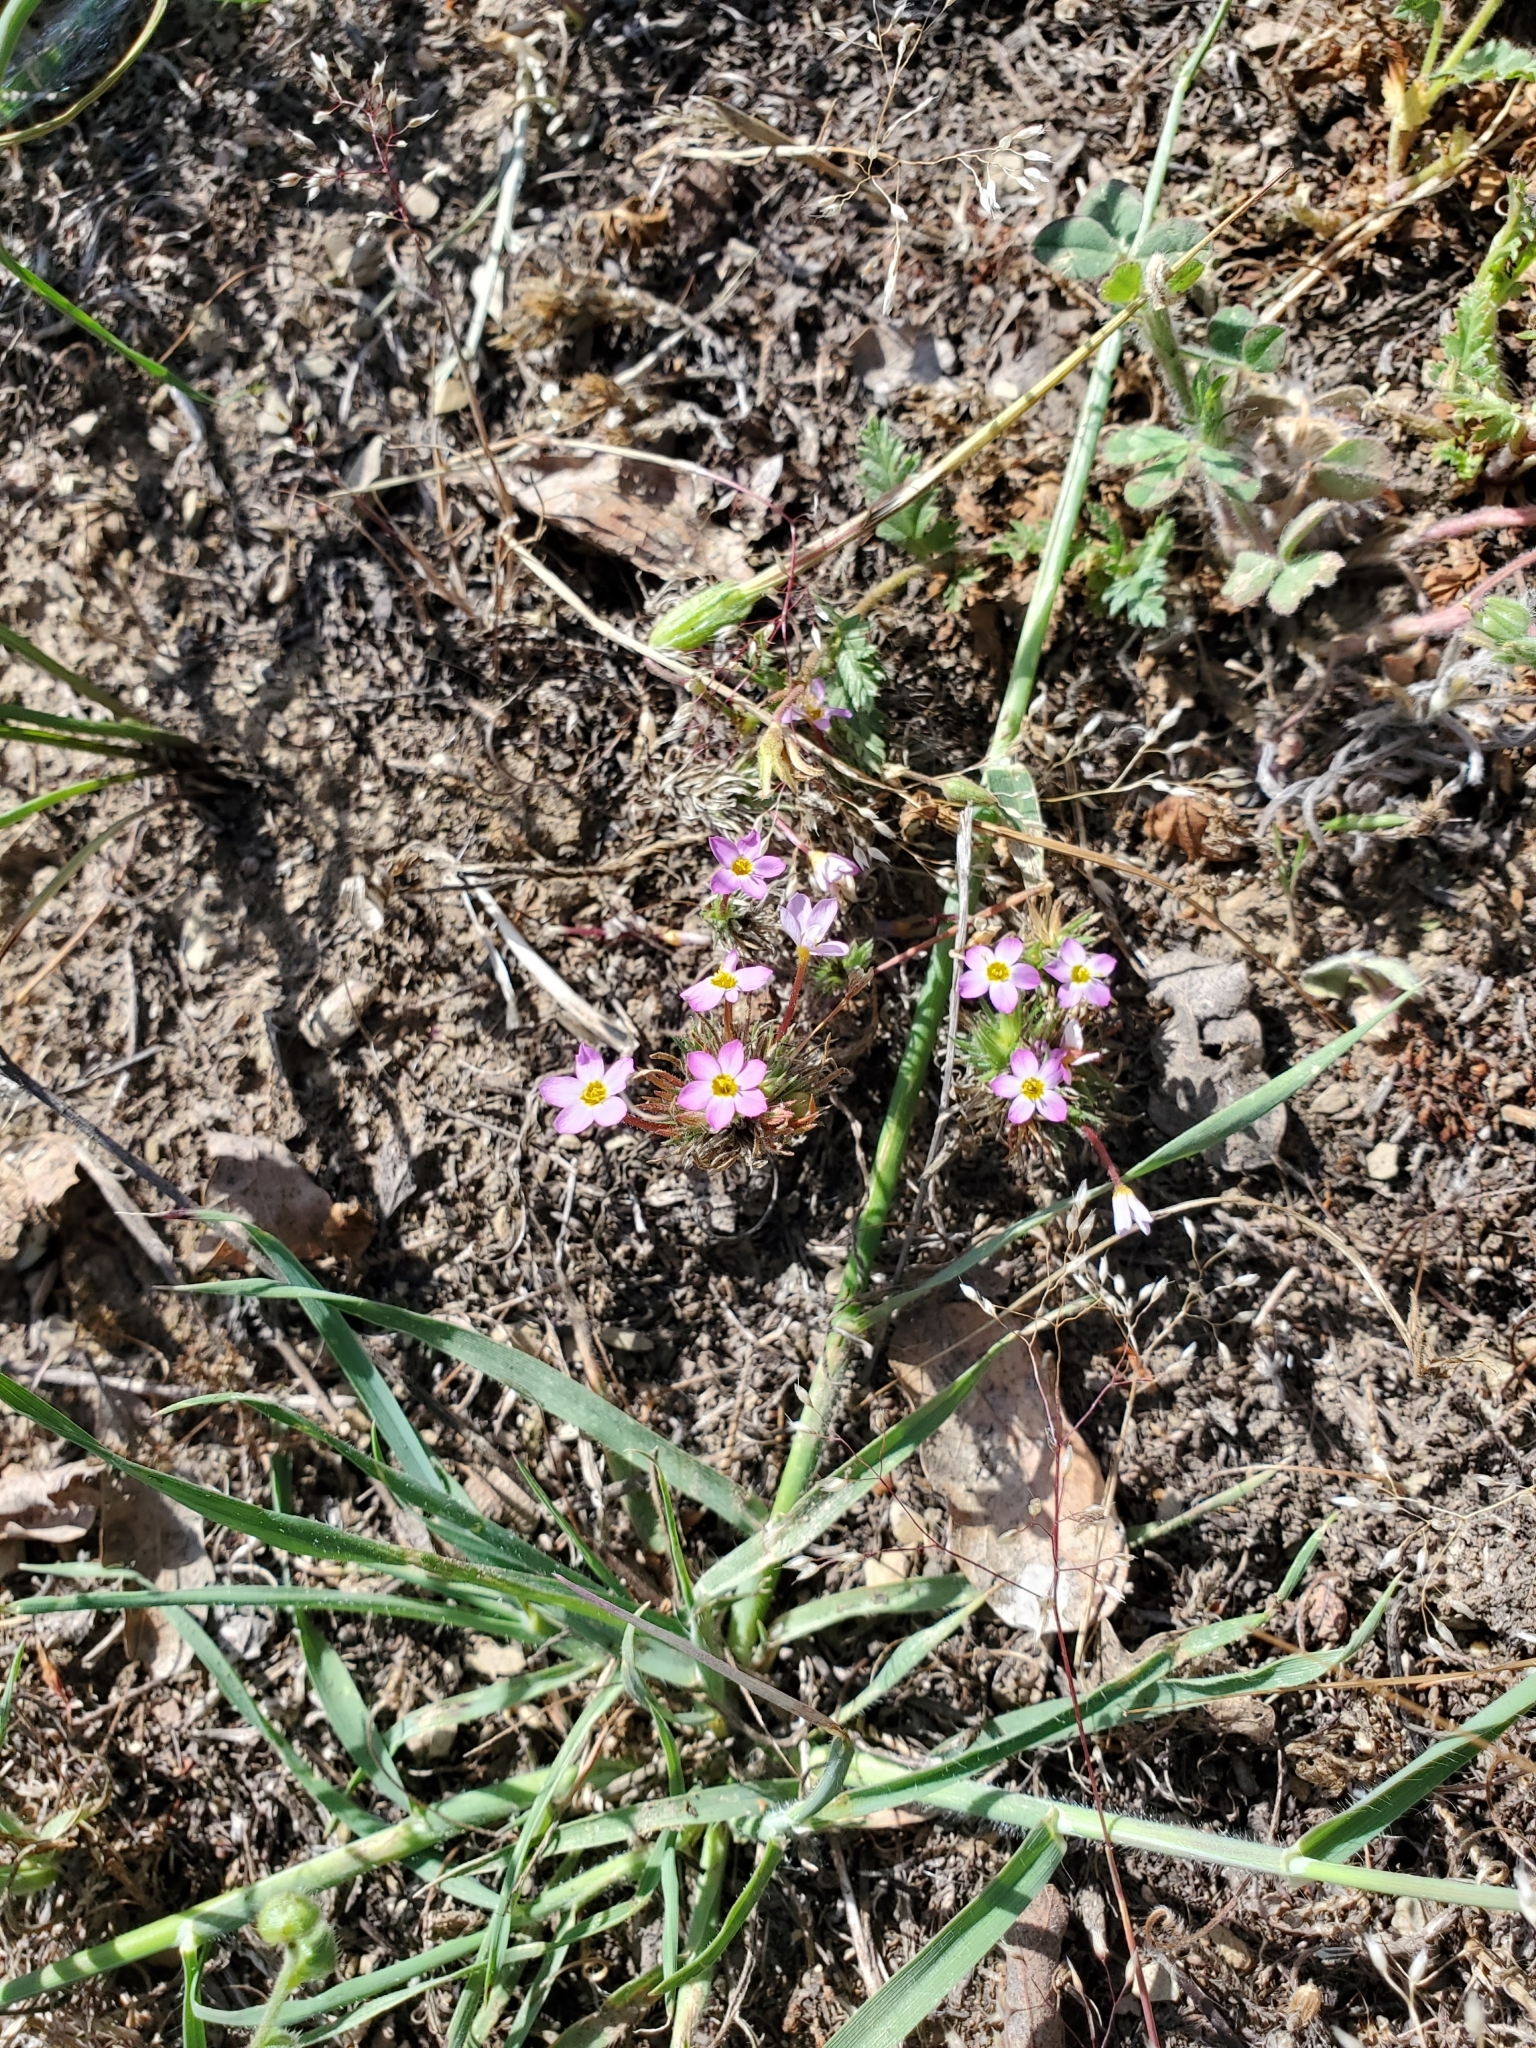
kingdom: Plantae
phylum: Tracheophyta
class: Magnoliopsida
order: Ericales
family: Polemoniaceae
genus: Leptosiphon
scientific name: Leptosiphon bicolor
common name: True babystars
